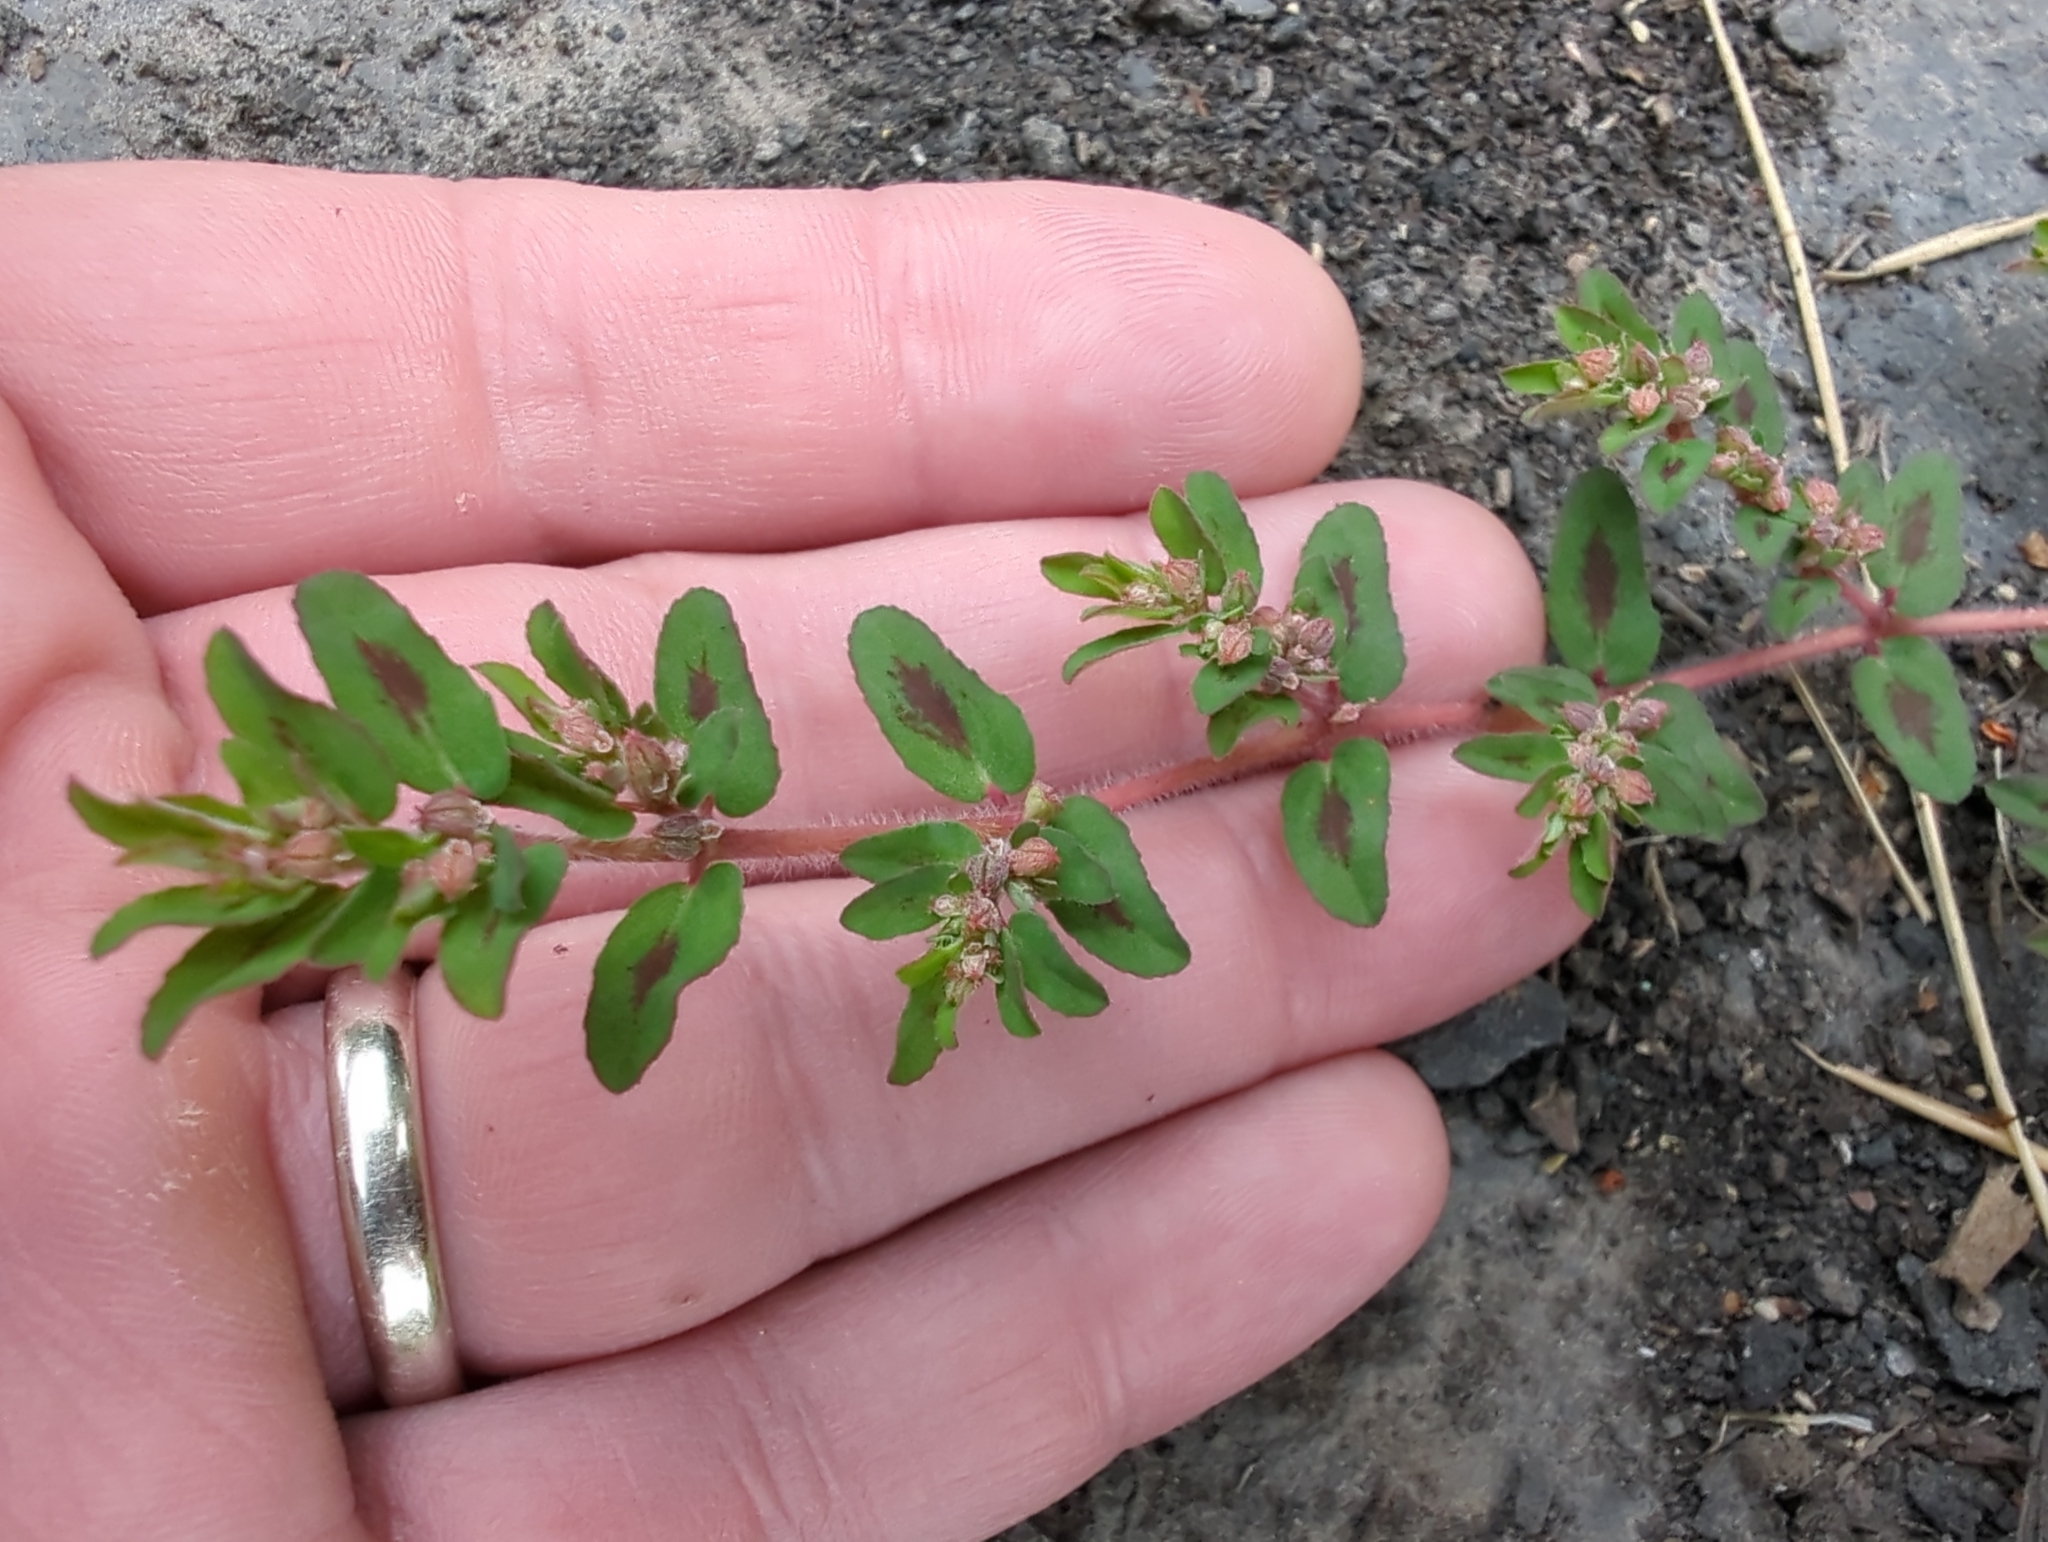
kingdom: Plantae
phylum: Tracheophyta
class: Magnoliopsida
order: Malpighiales
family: Euphorbiaceae
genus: Euphorbia
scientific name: Euphorbia maculata
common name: Spotted spurge
